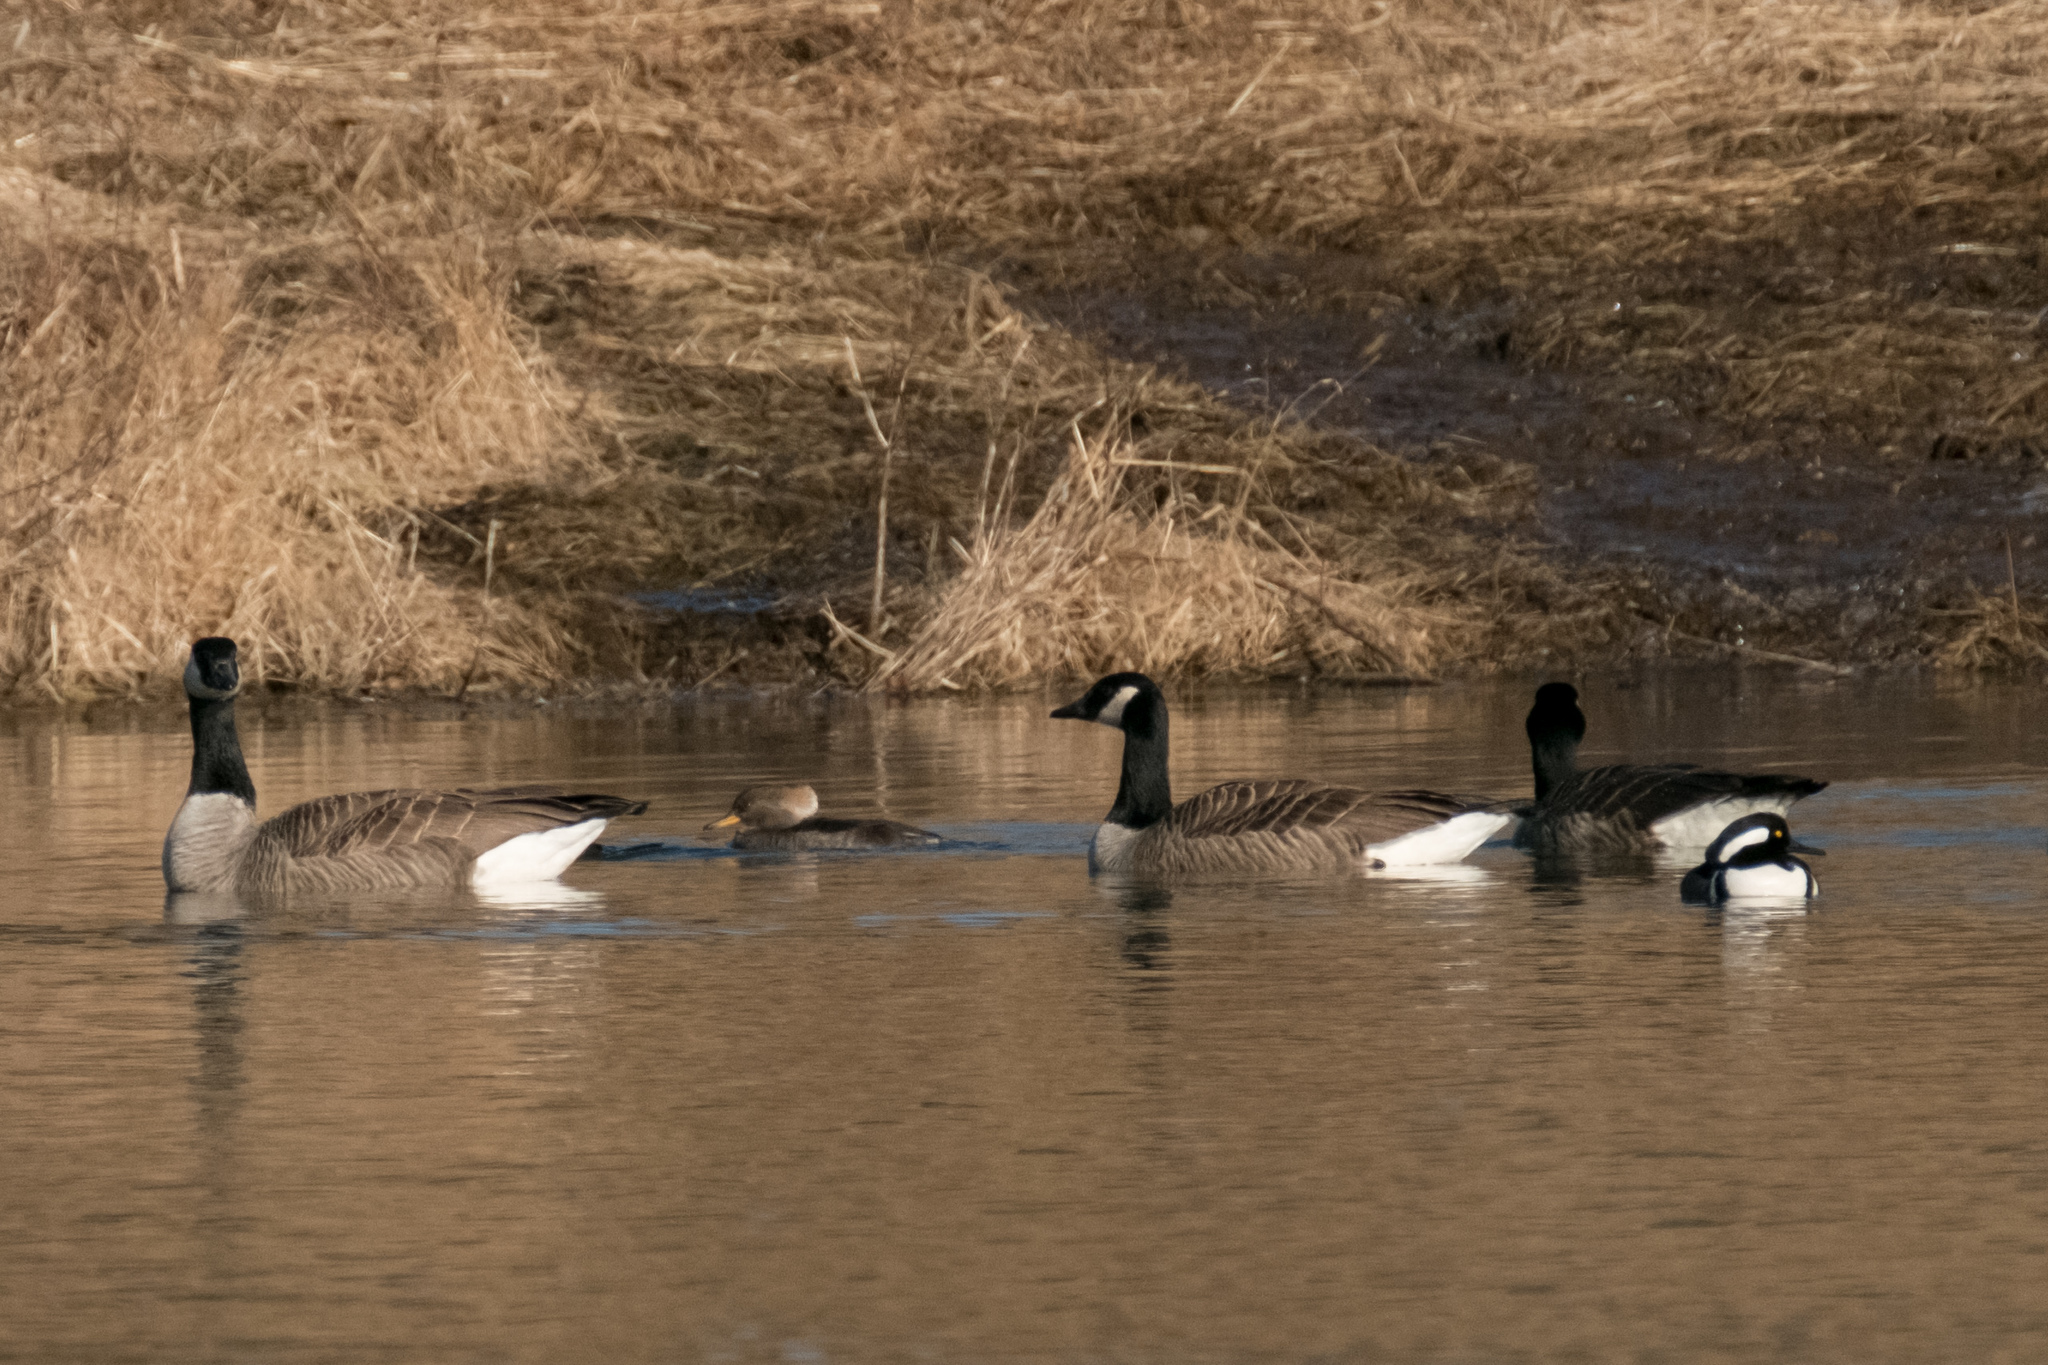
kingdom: Animalia
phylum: Chordata
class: Aves
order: Anseriformes
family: Anatidae
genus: Lophodytes
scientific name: Lophodytes cucullatus
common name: Hooded merganser
